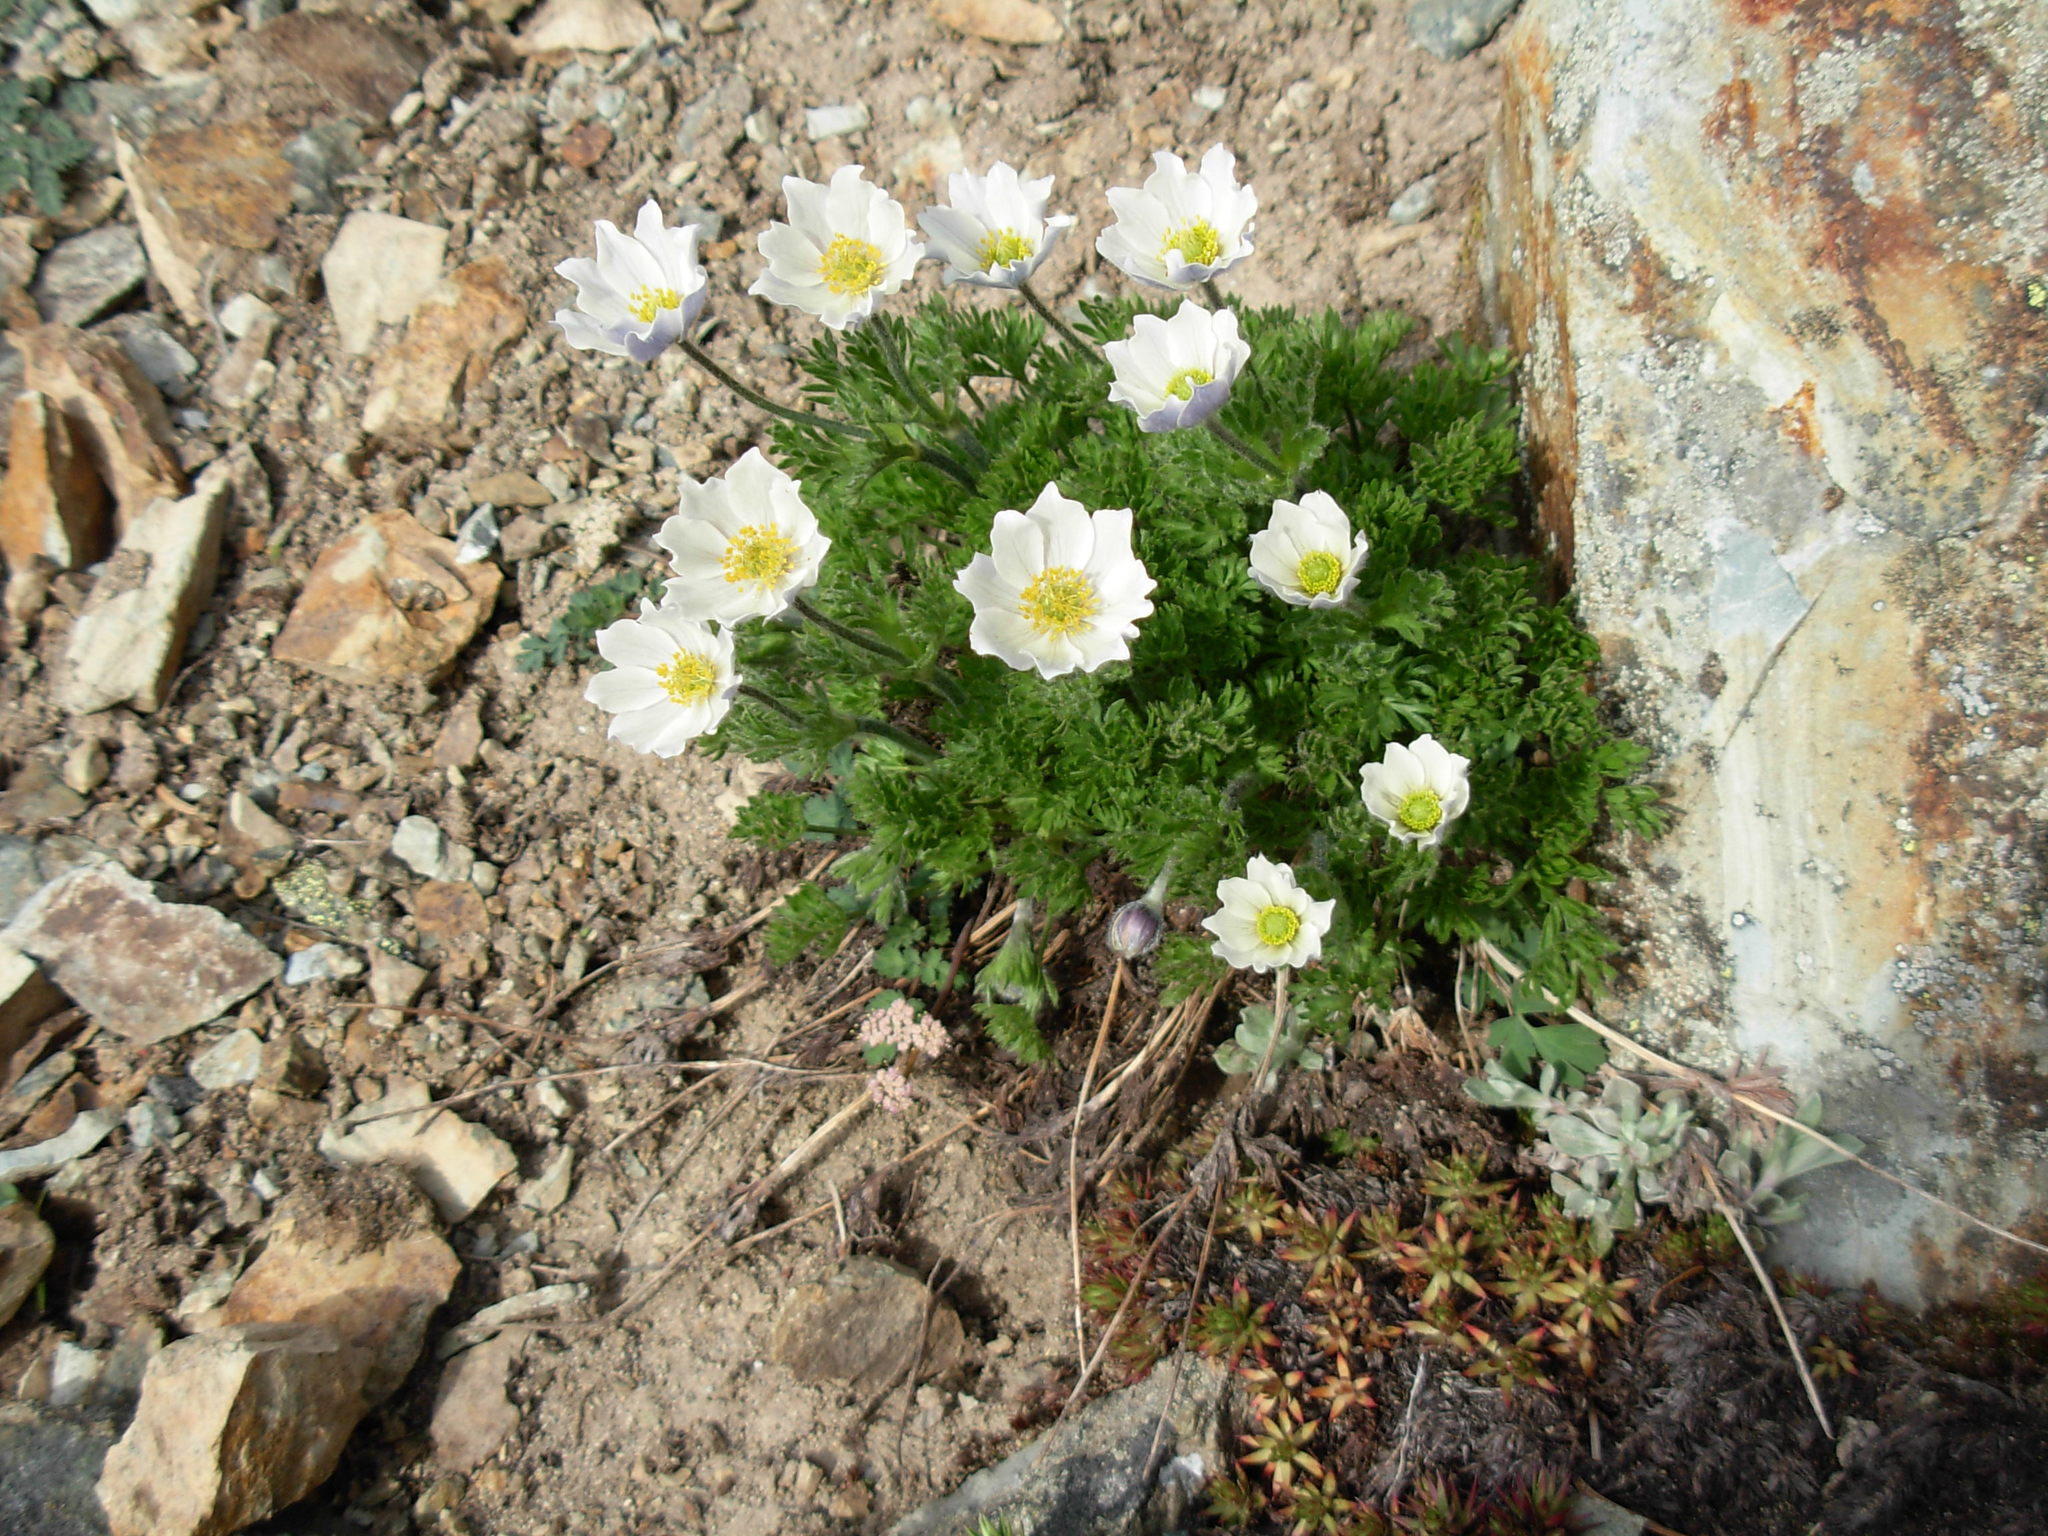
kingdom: Plantae
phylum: Tracheophyta
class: Magnoliopsida
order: Ranunculales
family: Ranunculaceae
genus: Anemone
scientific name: Anemone drummondii
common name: Drummond's anemone
